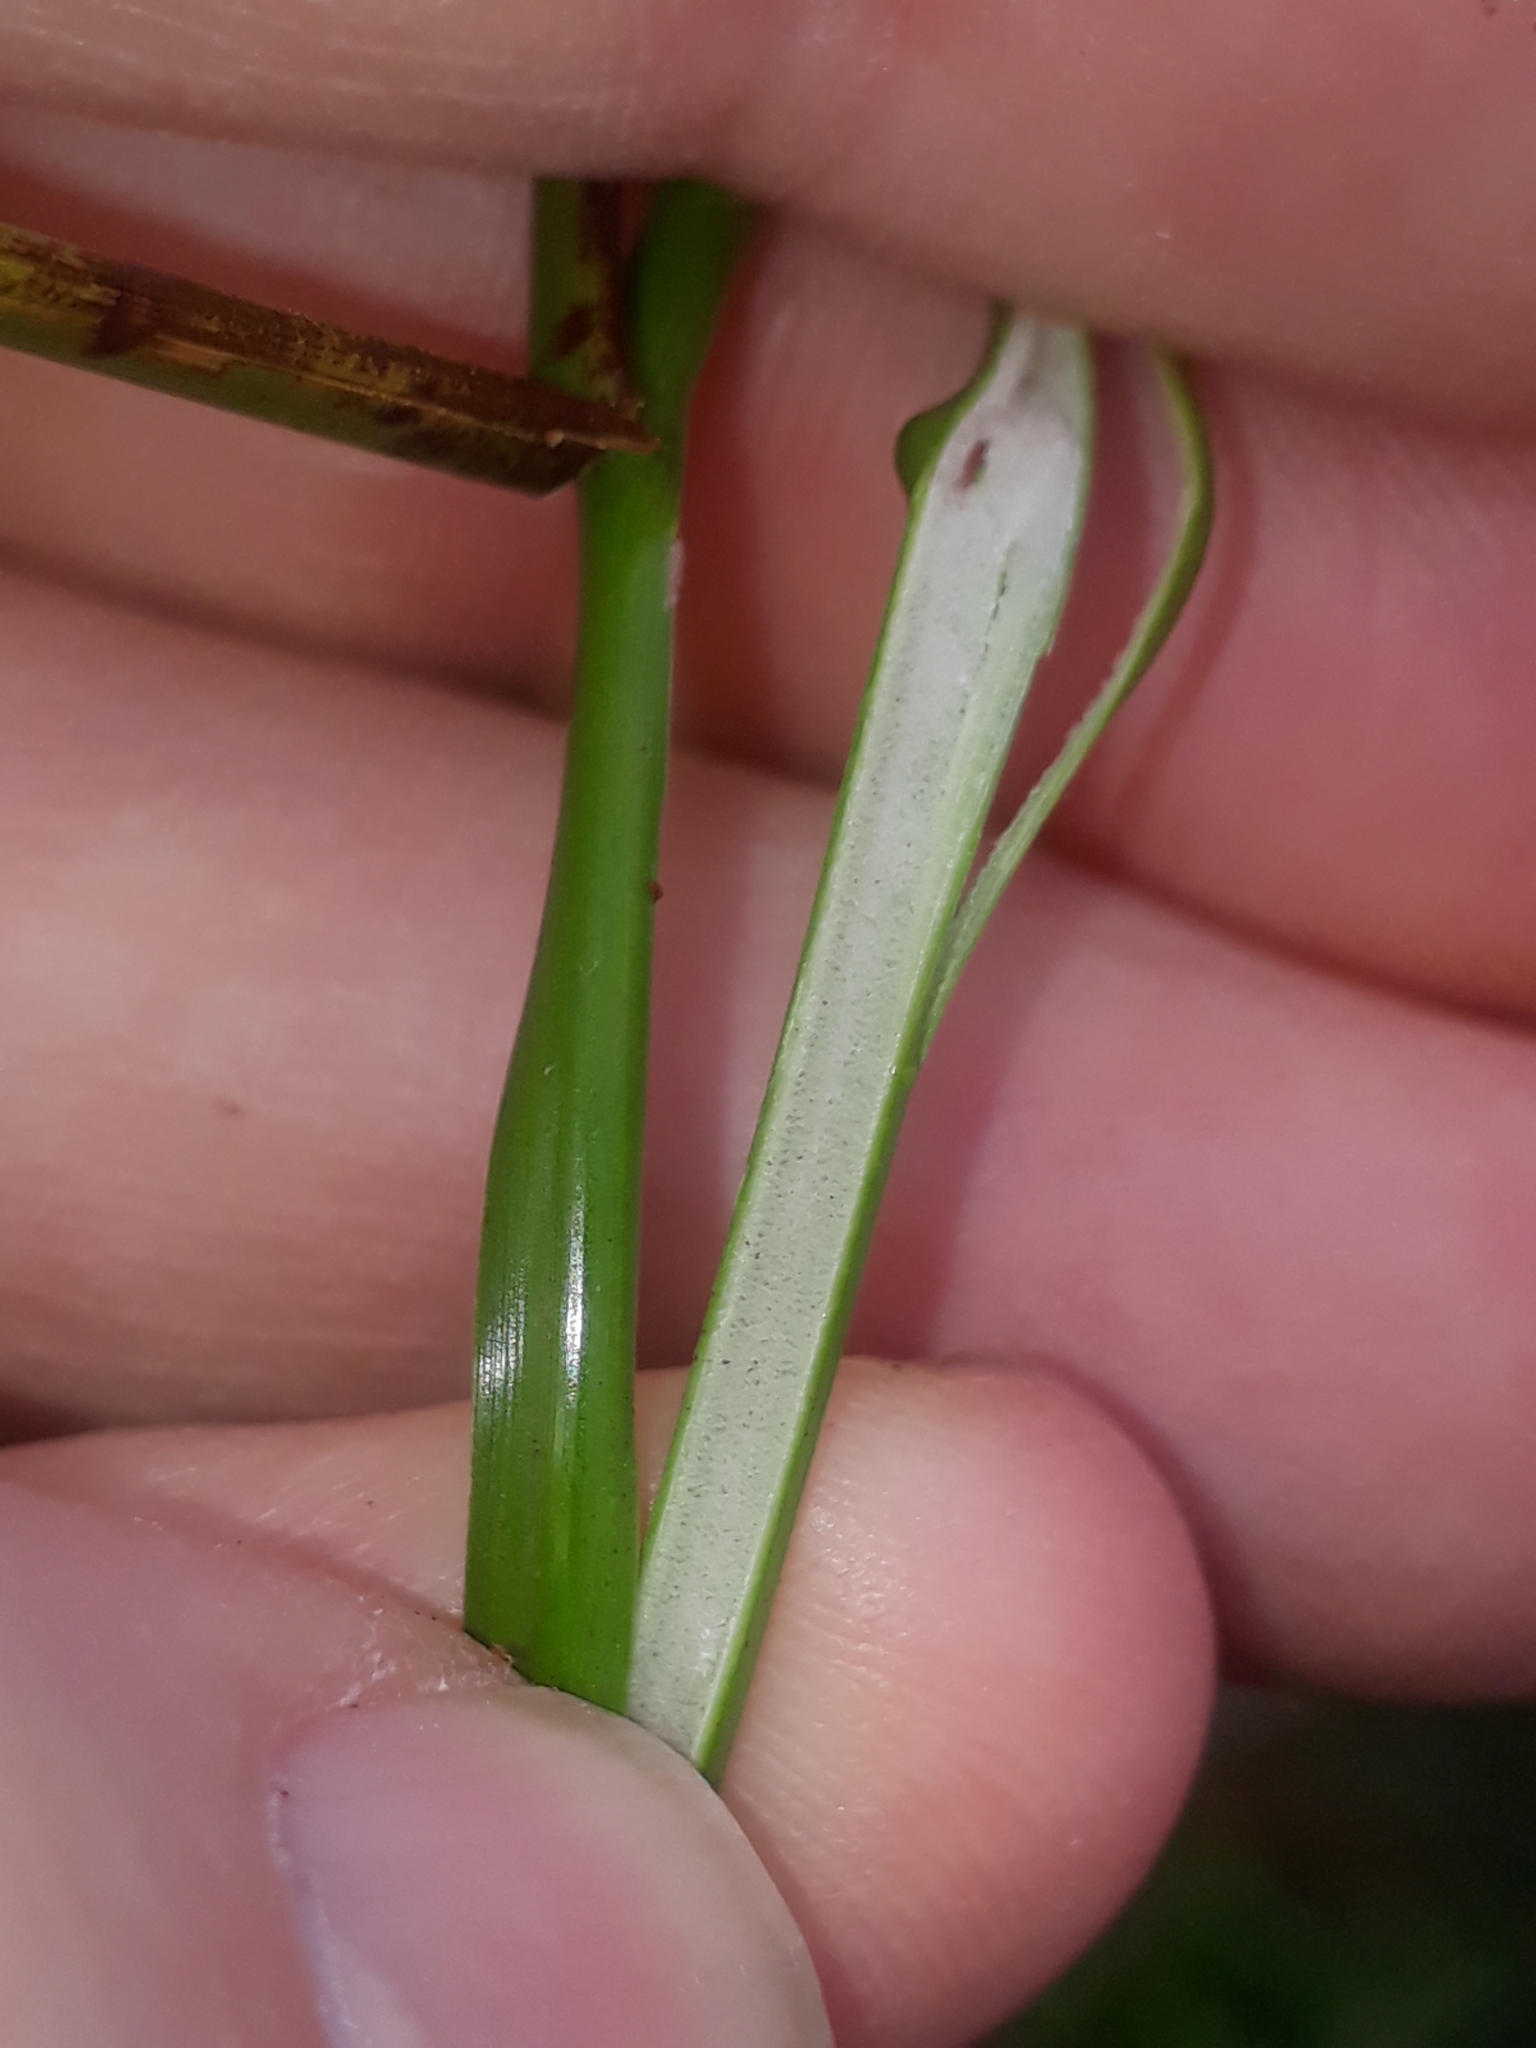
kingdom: Plantae
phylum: Tracheophyta
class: Liliopsida
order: Poales
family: Juncaceae
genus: Juncus
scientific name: Juncus effusus
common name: Soft rush
